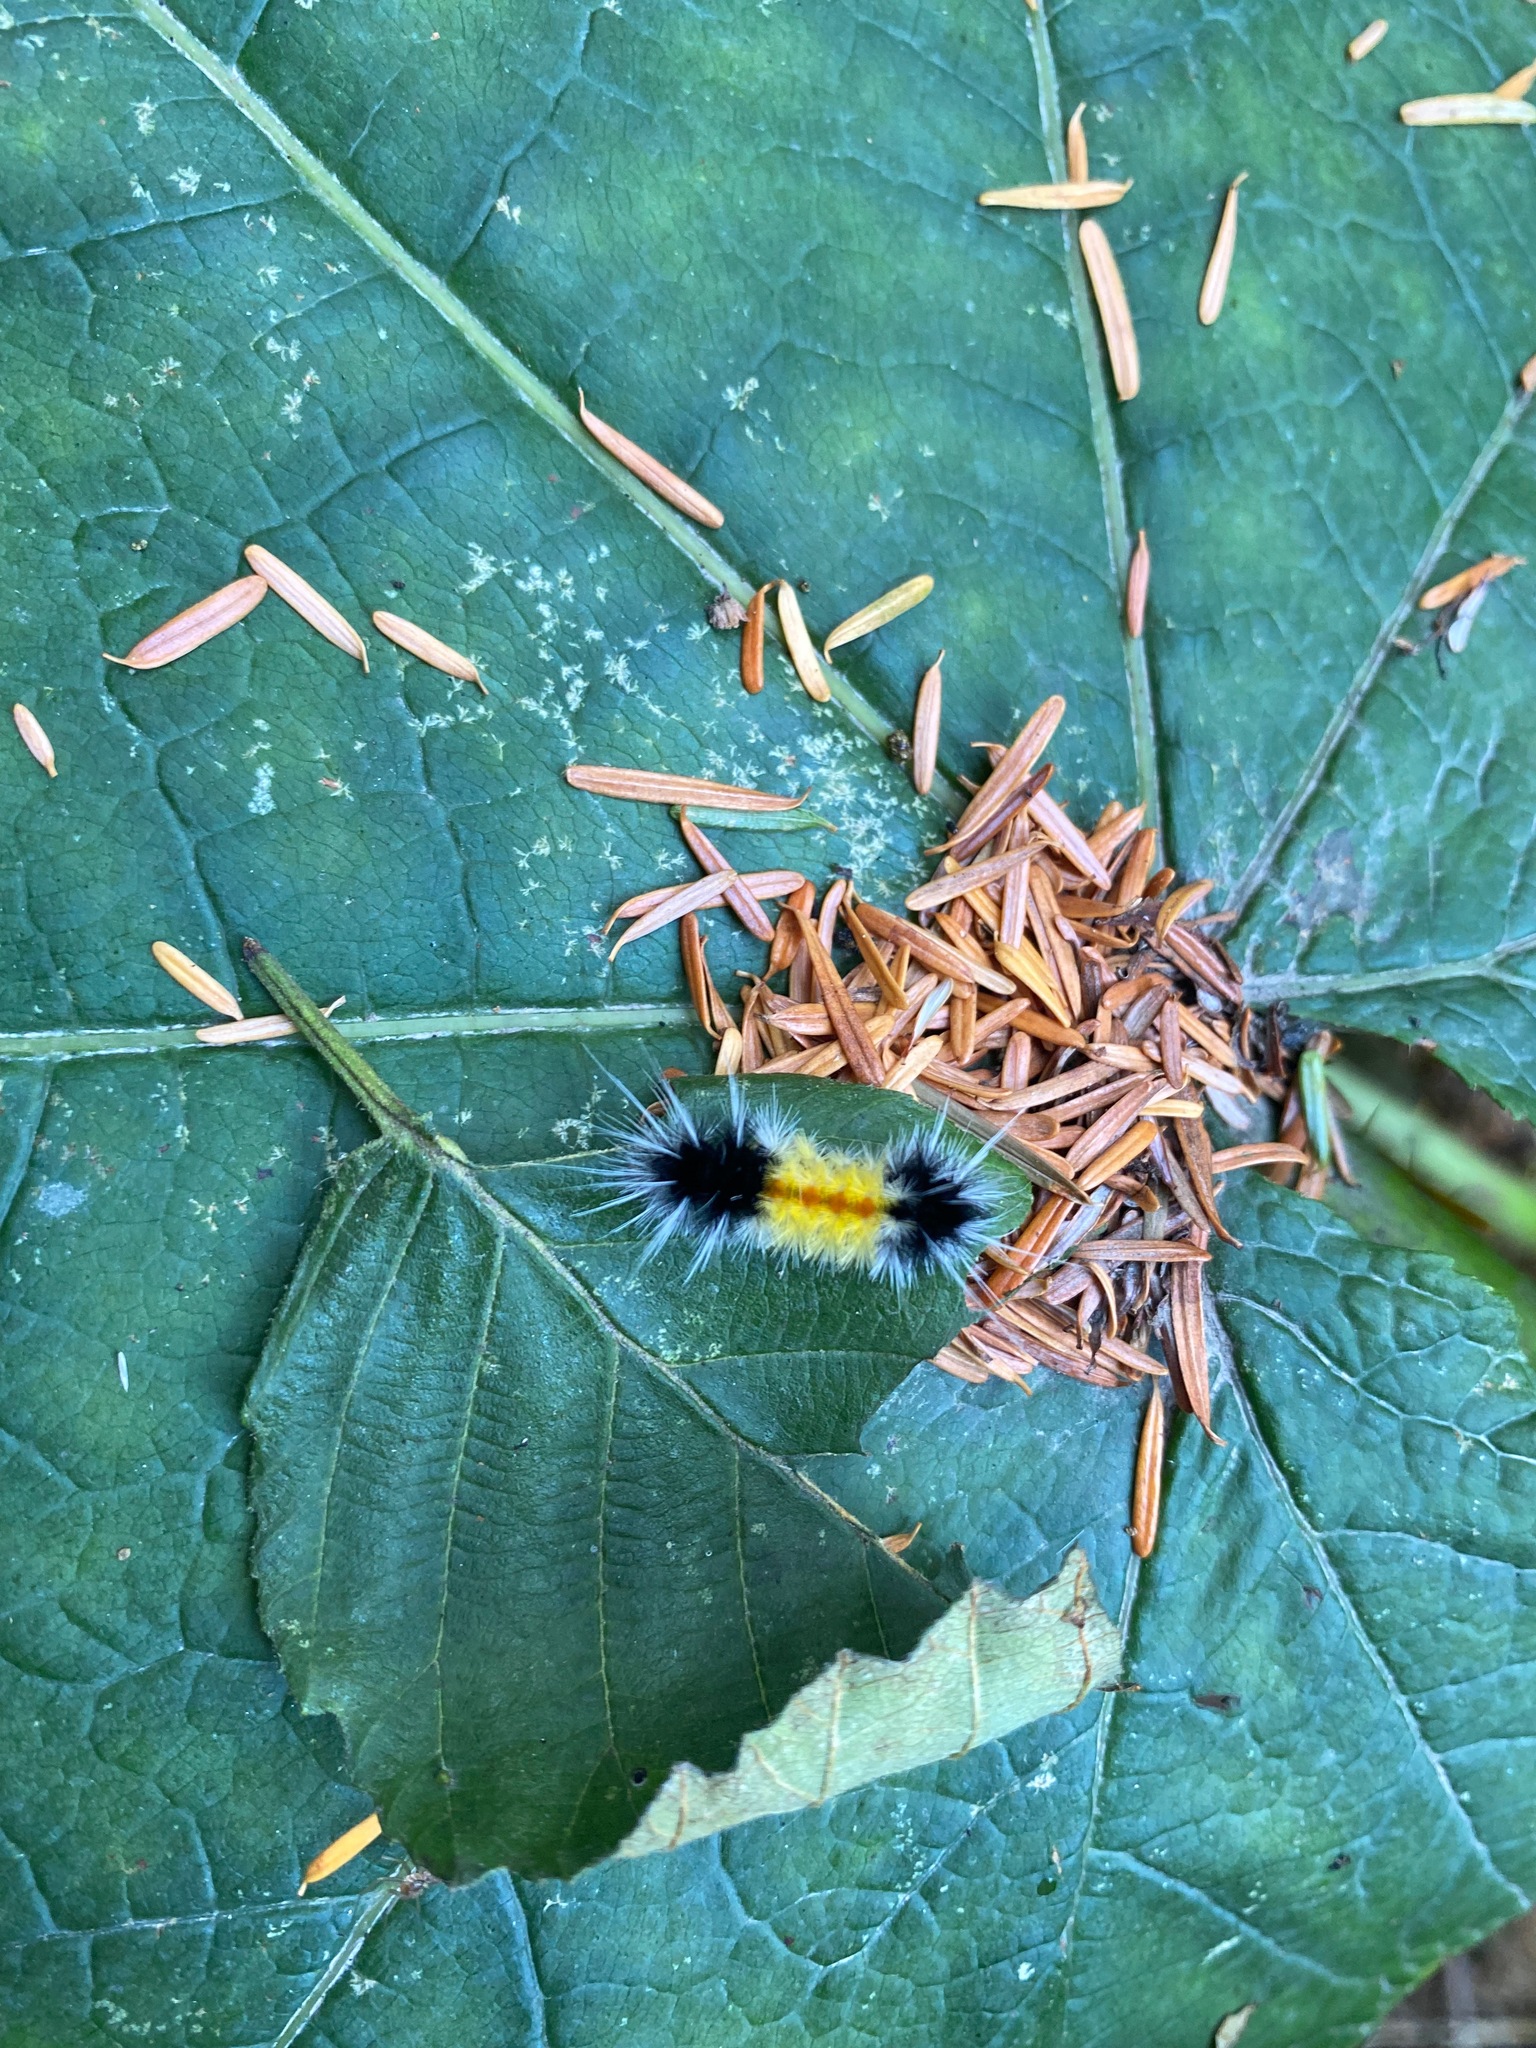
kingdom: Animalia
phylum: Arthropoda
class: Insecta
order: Lepidoptera
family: Erebidae
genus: Lophocampa
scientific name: Lophocampa maculata
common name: Spotted tussock moth
